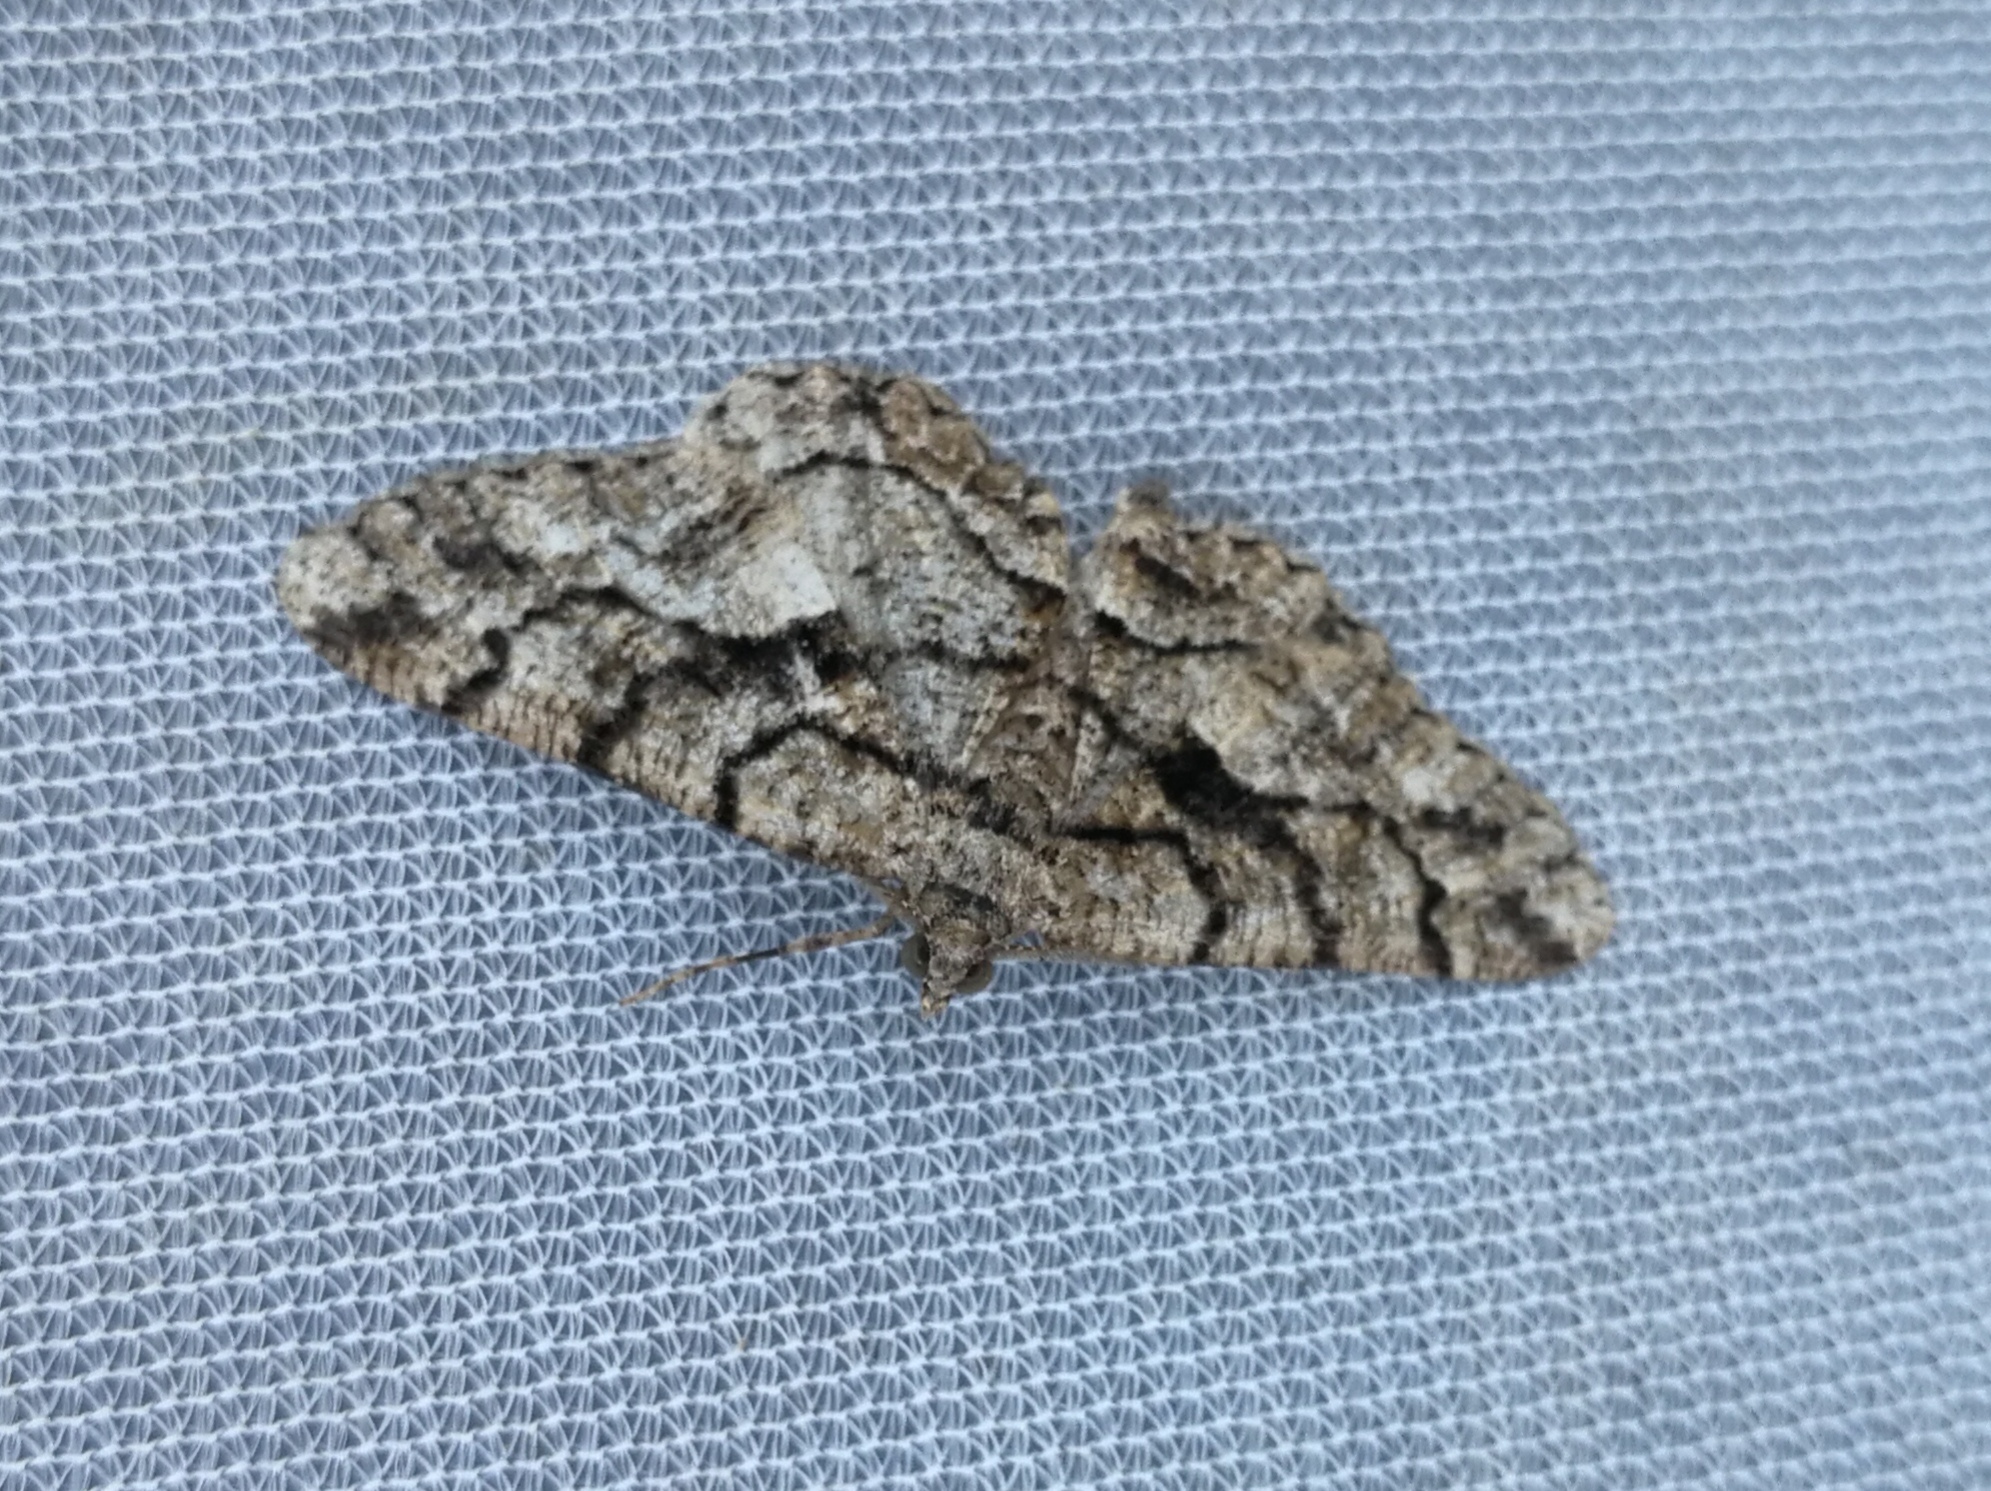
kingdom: Animalia
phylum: Arthropoda
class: Insecta
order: Lepidoptera
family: Geometridae
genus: Peribatodes
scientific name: Peribatodes ilicaria
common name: Lydd beauty
